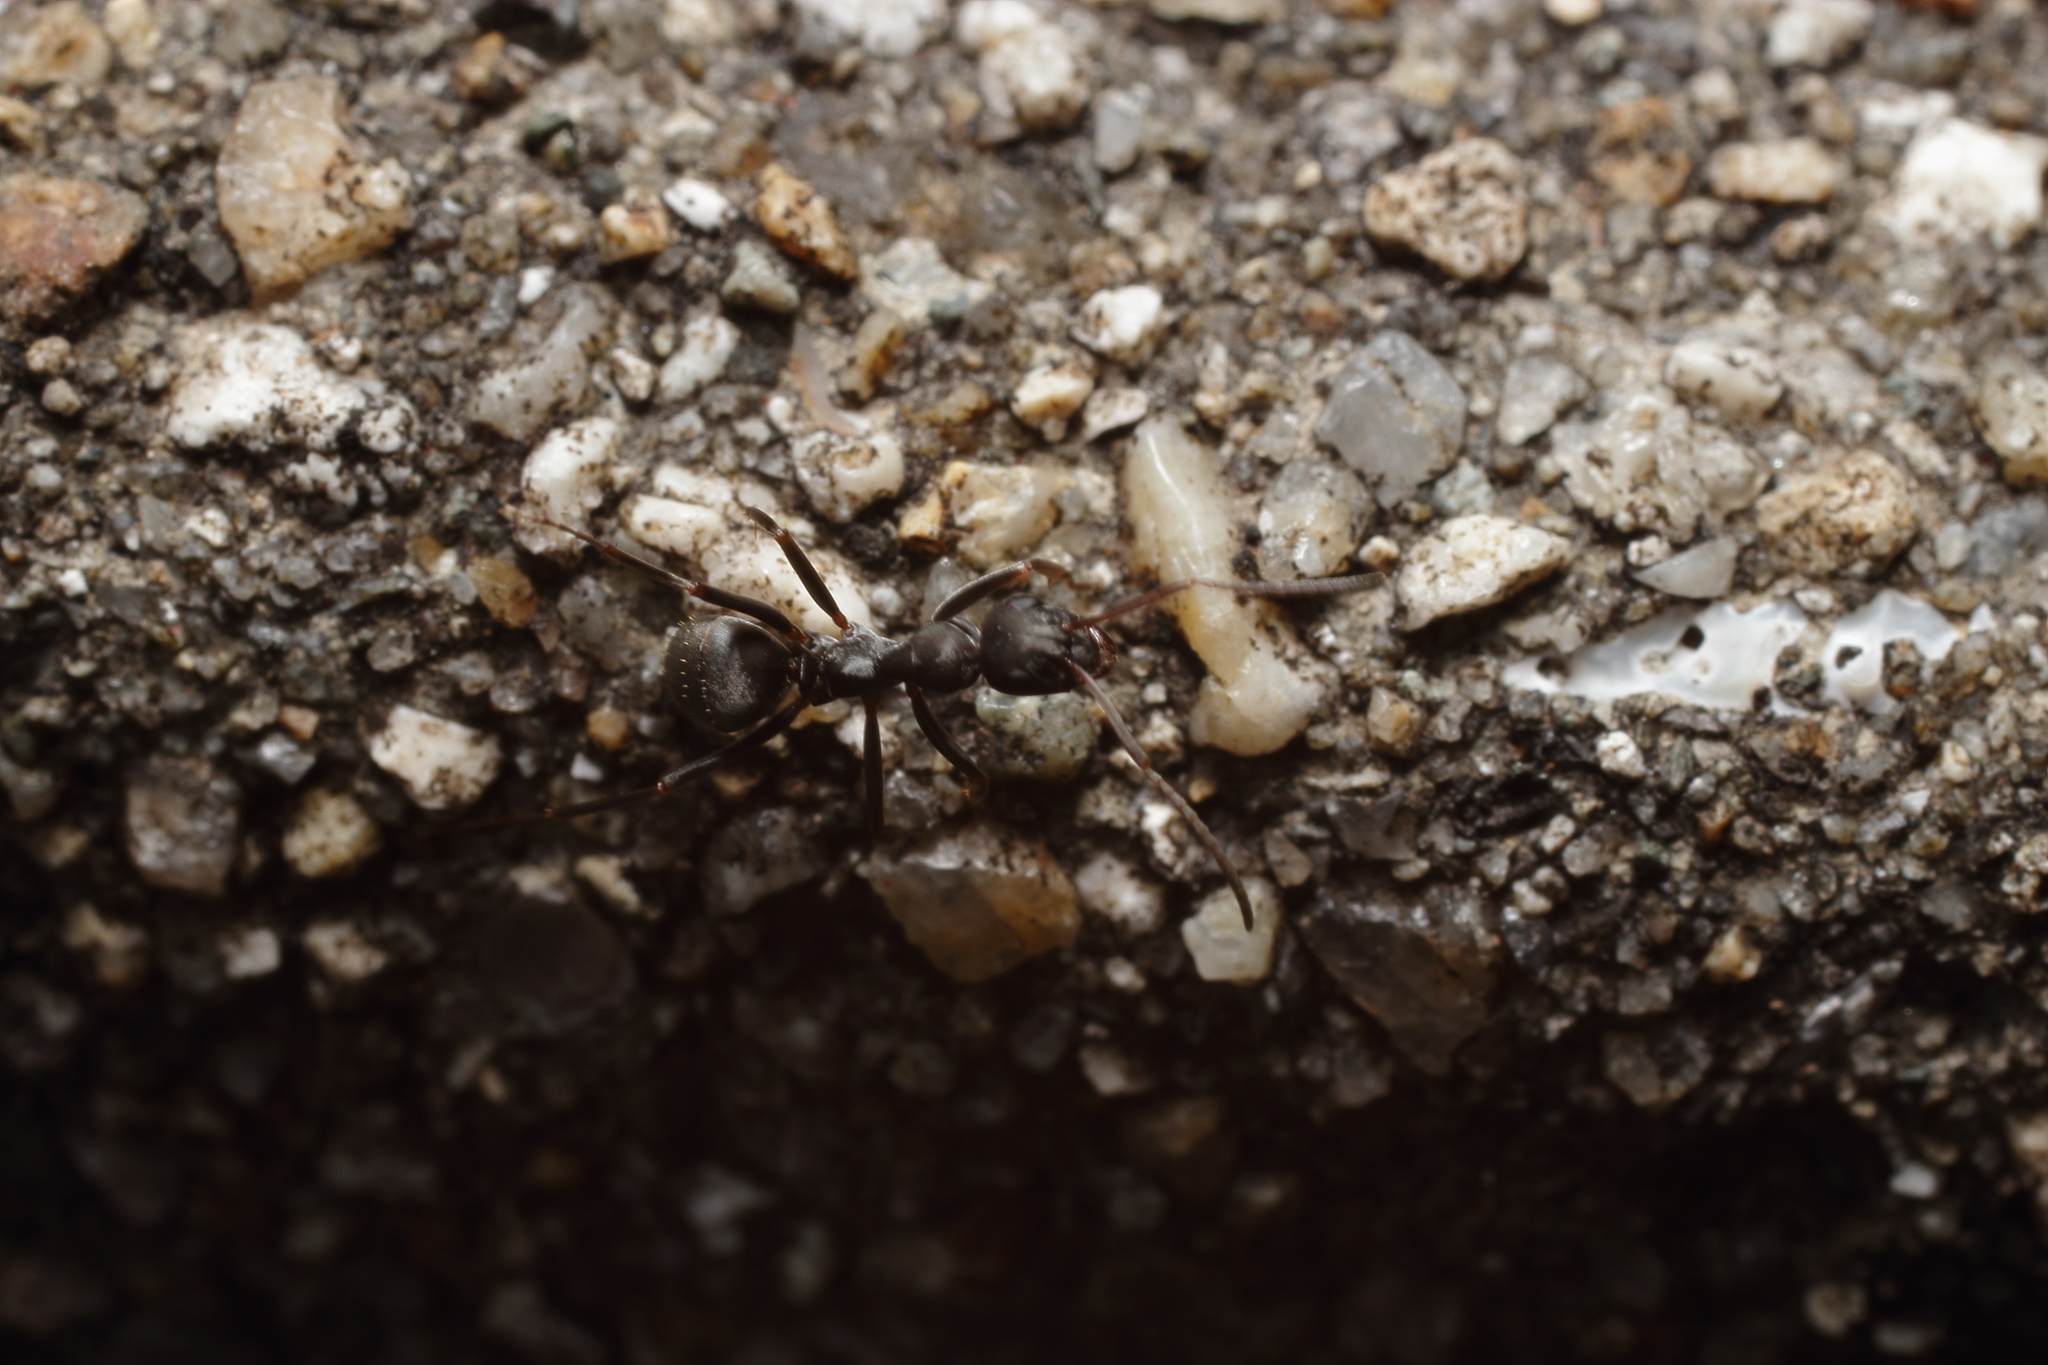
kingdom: Animalia
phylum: Arthropoda
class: Insecta
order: Hymenoptera
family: Formicidae
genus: Formica
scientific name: Formica japonica
